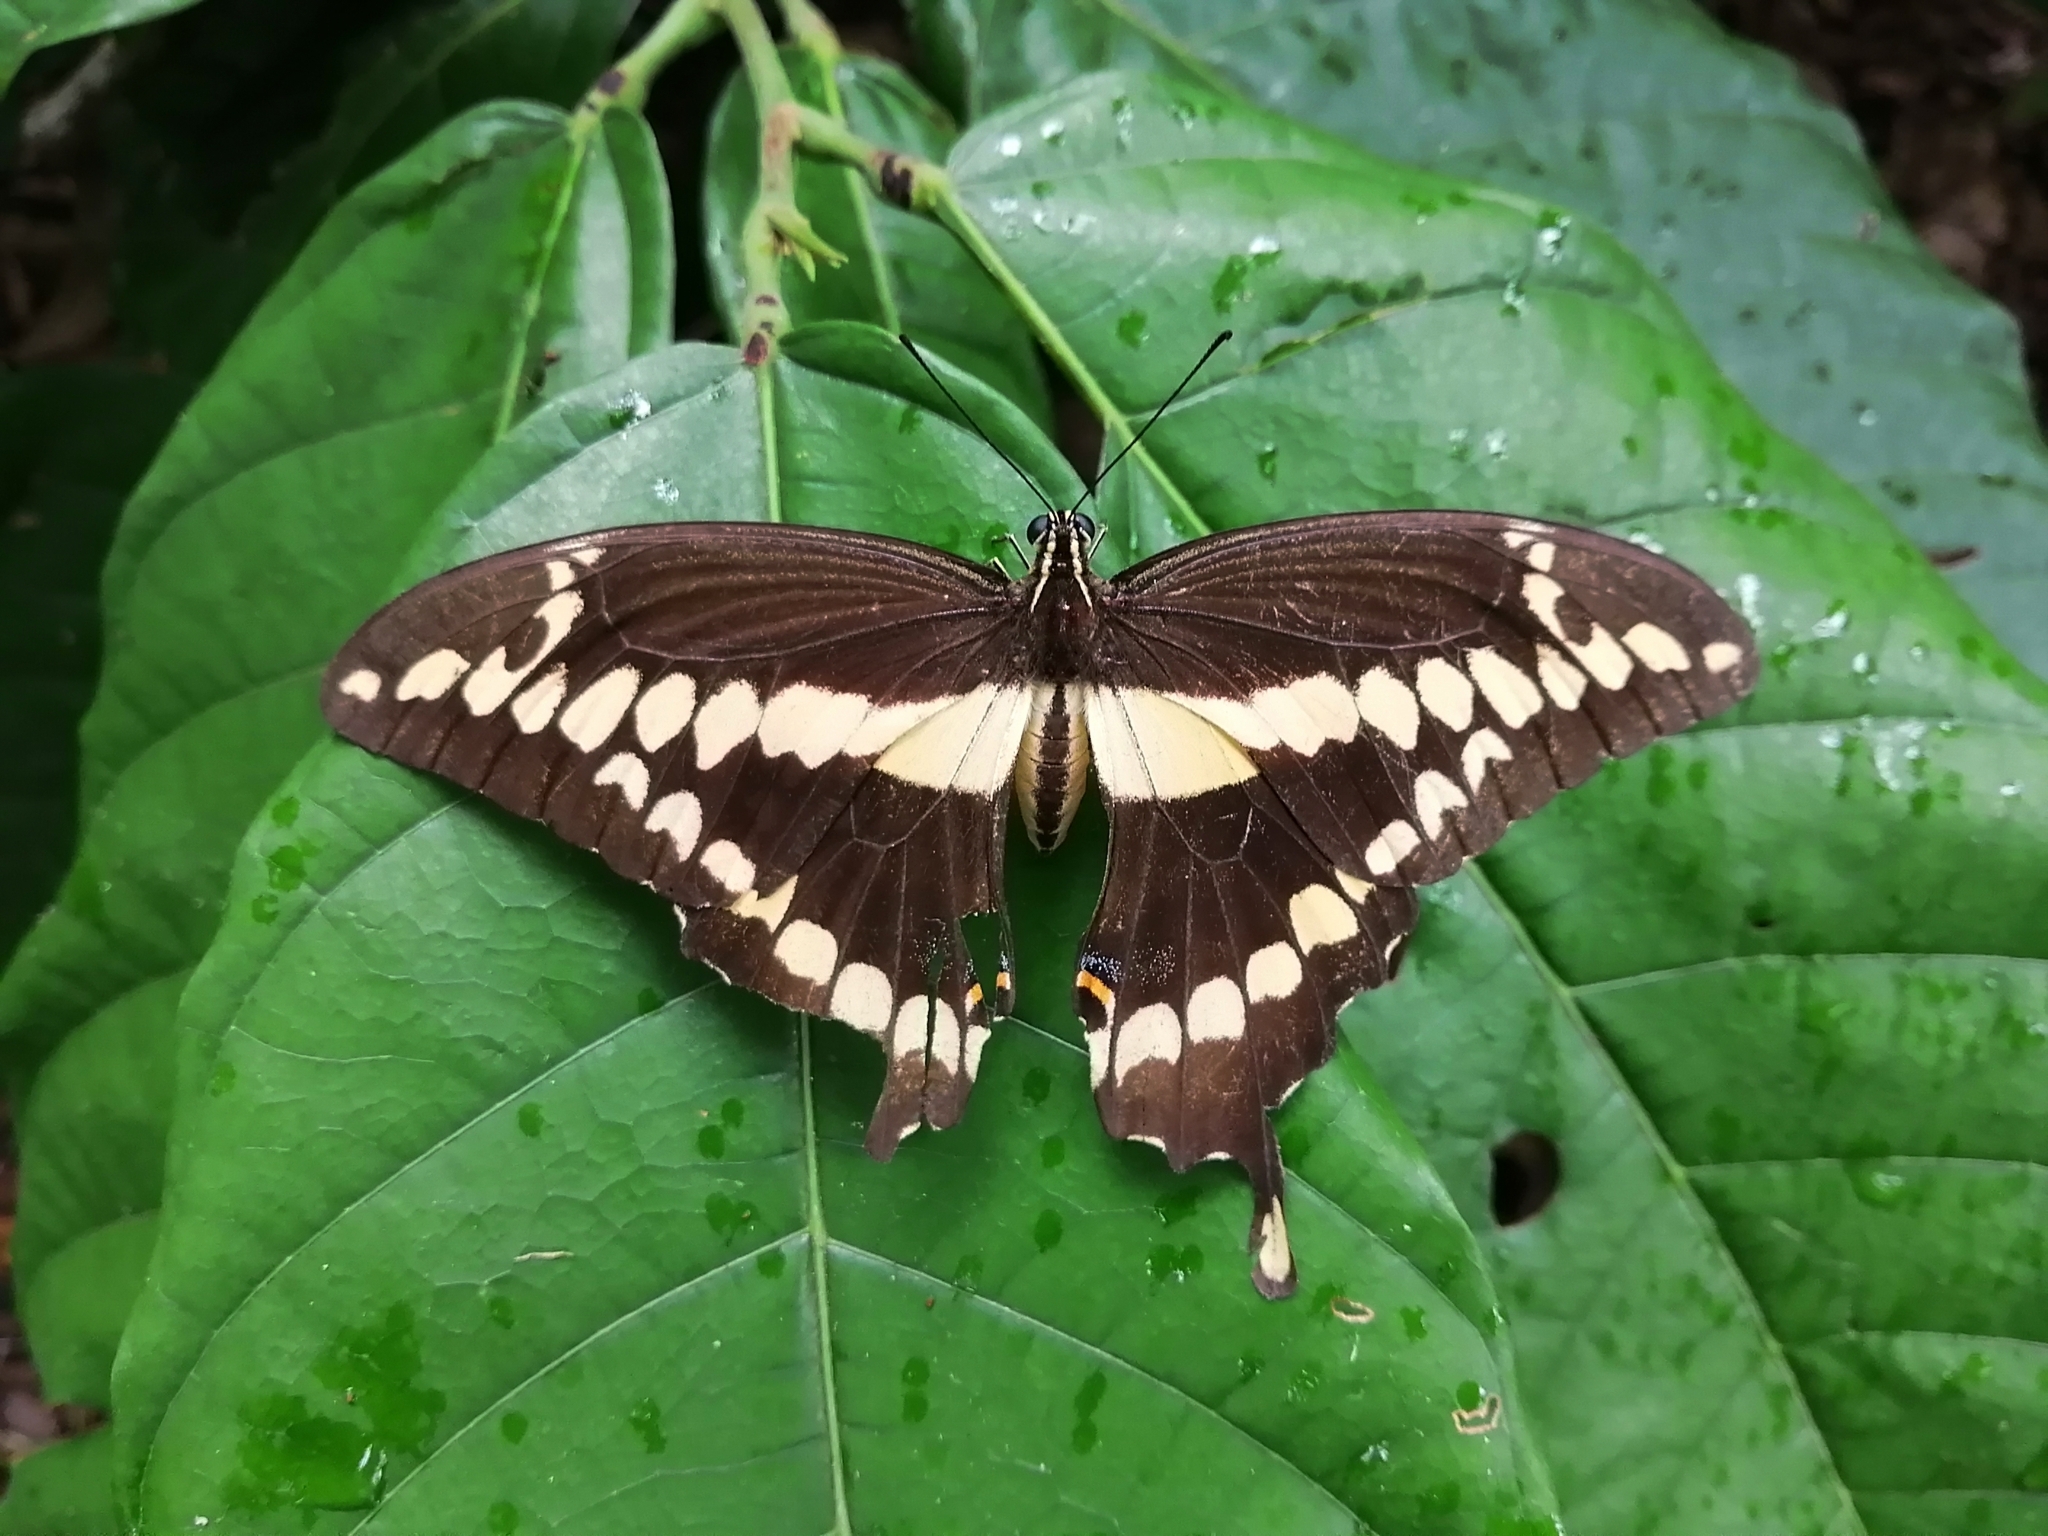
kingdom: Animalia
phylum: Arthropoda
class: Insecta
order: Lepidoptera
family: Papilionidae
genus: Papilio
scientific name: Papilio rumiko
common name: Western giant swallowtail
